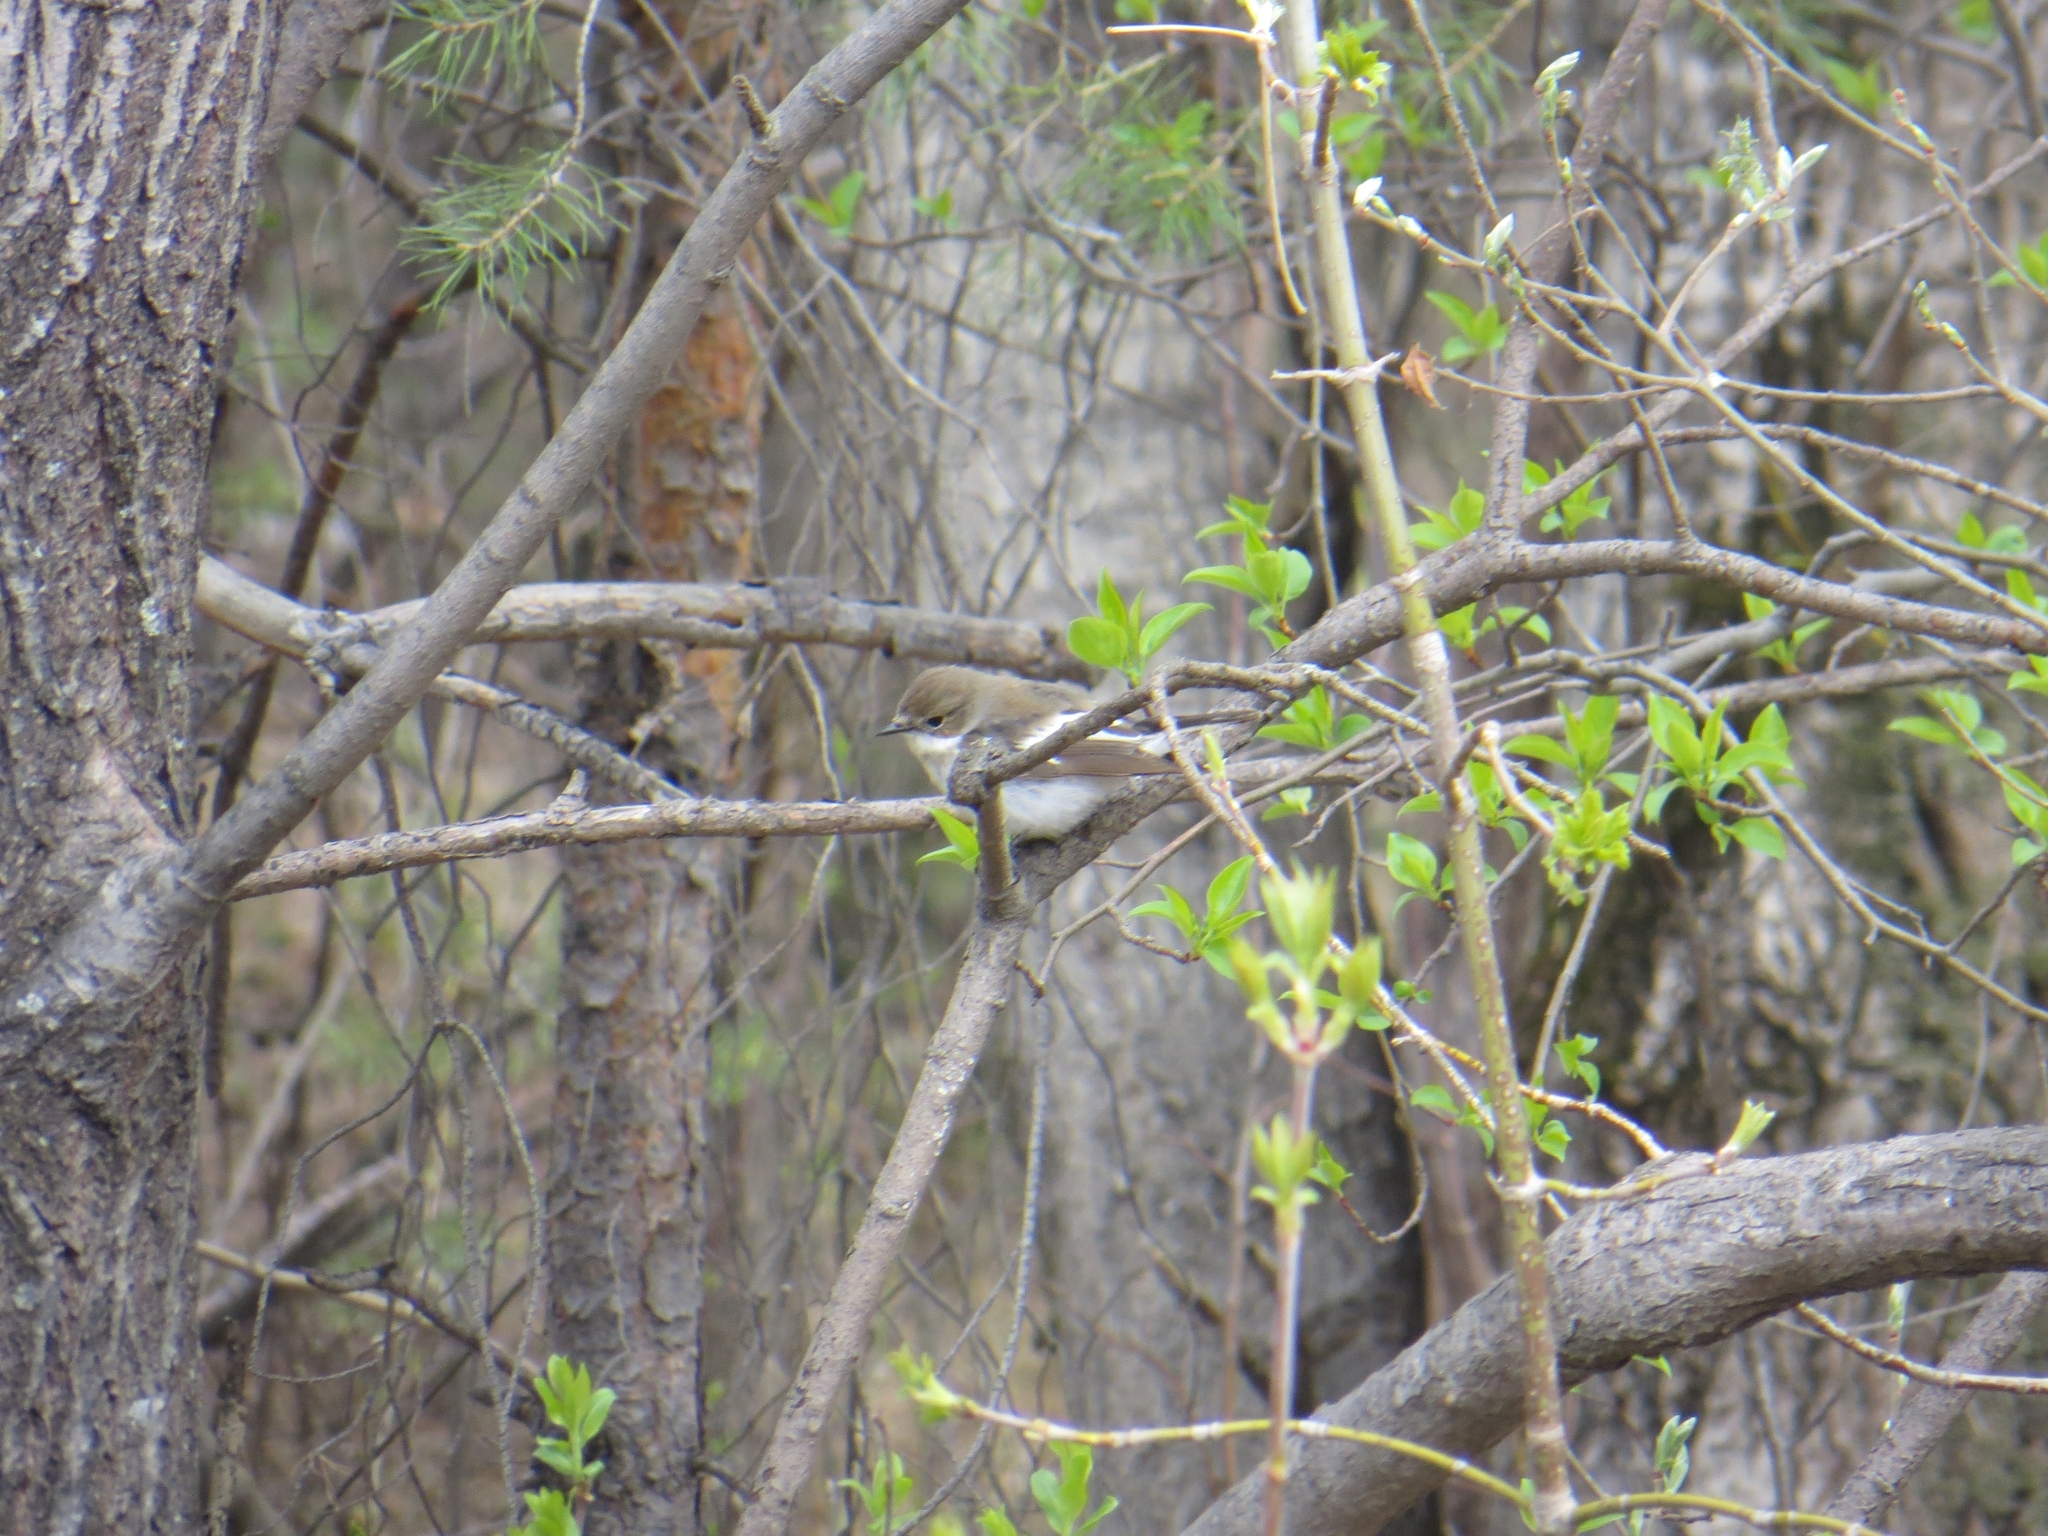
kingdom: Animalia
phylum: Chordata
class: Aves
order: Passeriformes
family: Muscicapidae
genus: Ficedula
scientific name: Ficedula hypoleuca
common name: European pied flycatcher
